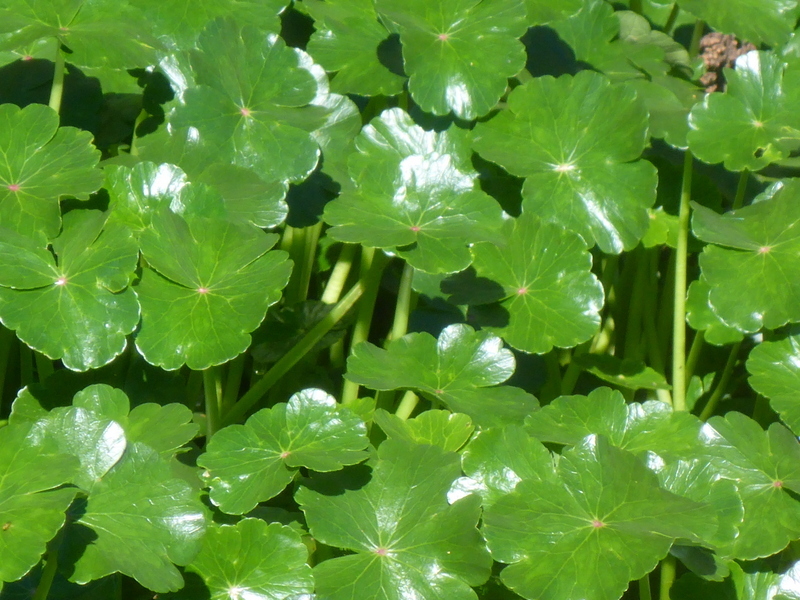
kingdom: Plantae
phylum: Tracheophyta
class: Magnoliopsida
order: Apiales
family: Araliaceae
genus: Hydrocotyle
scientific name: Hydrocotyle ranunculoides
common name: Floating pennywort
